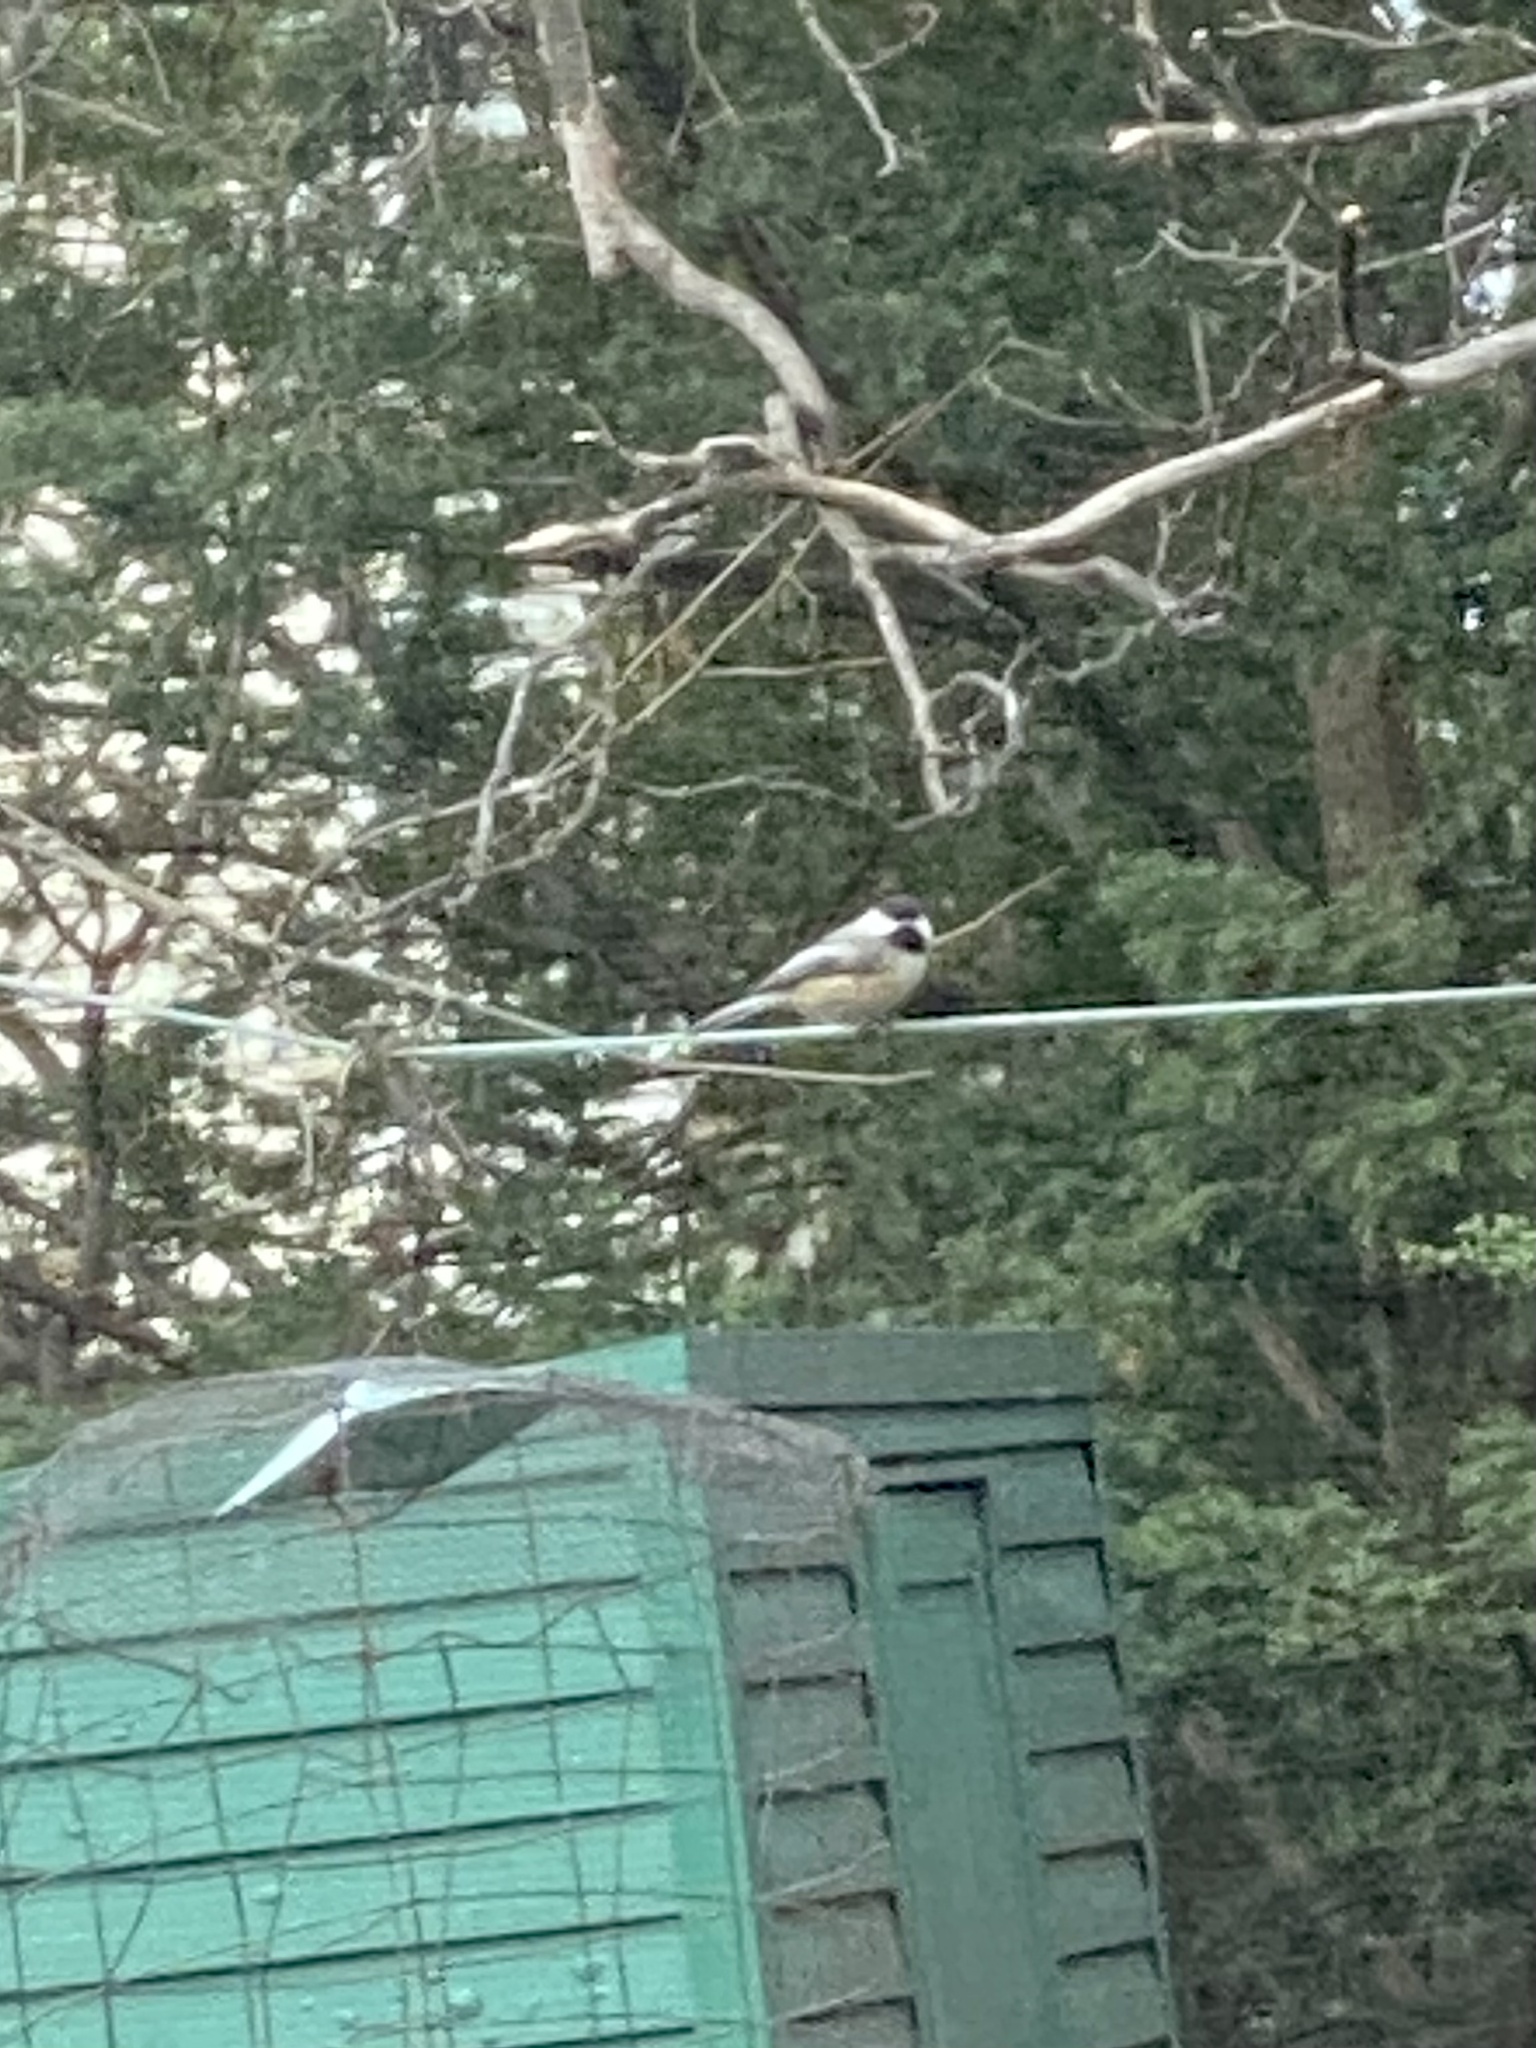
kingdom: Animalia
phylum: Chordata
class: Aves
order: Passeriformes
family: Paridae
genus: Poecile
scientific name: Poecile atricapillus
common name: Black-capped chickadee
